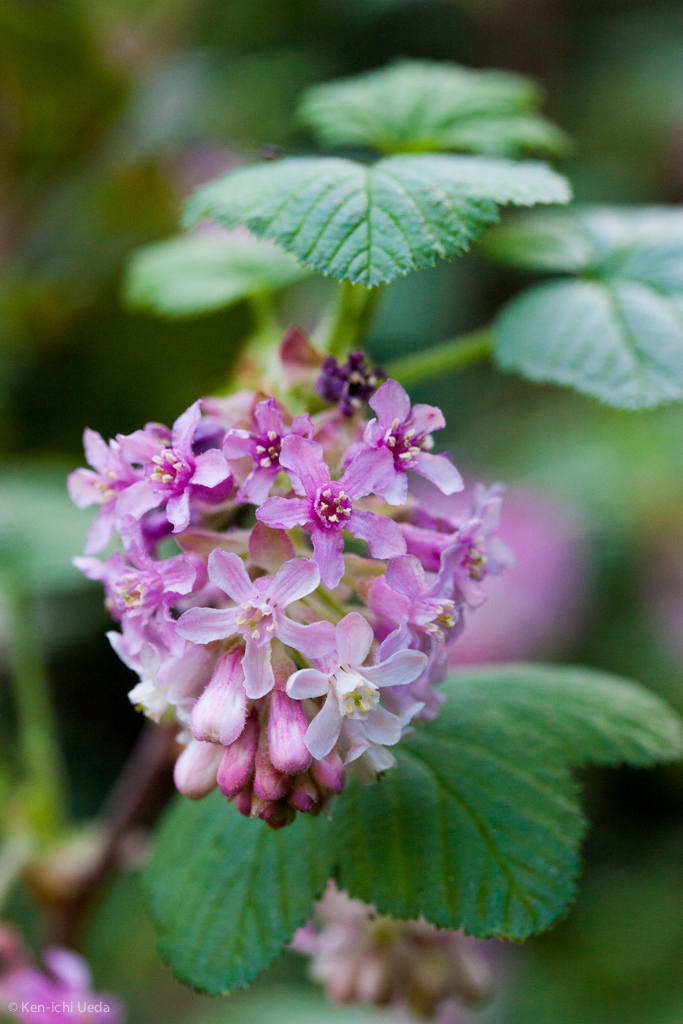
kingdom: Plantae
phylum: Tracheophyta
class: Magnoliopsida
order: Saxifragales
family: Grossulariaceae
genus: Ribes
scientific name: Ribes sanguineum
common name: Flowering currant
